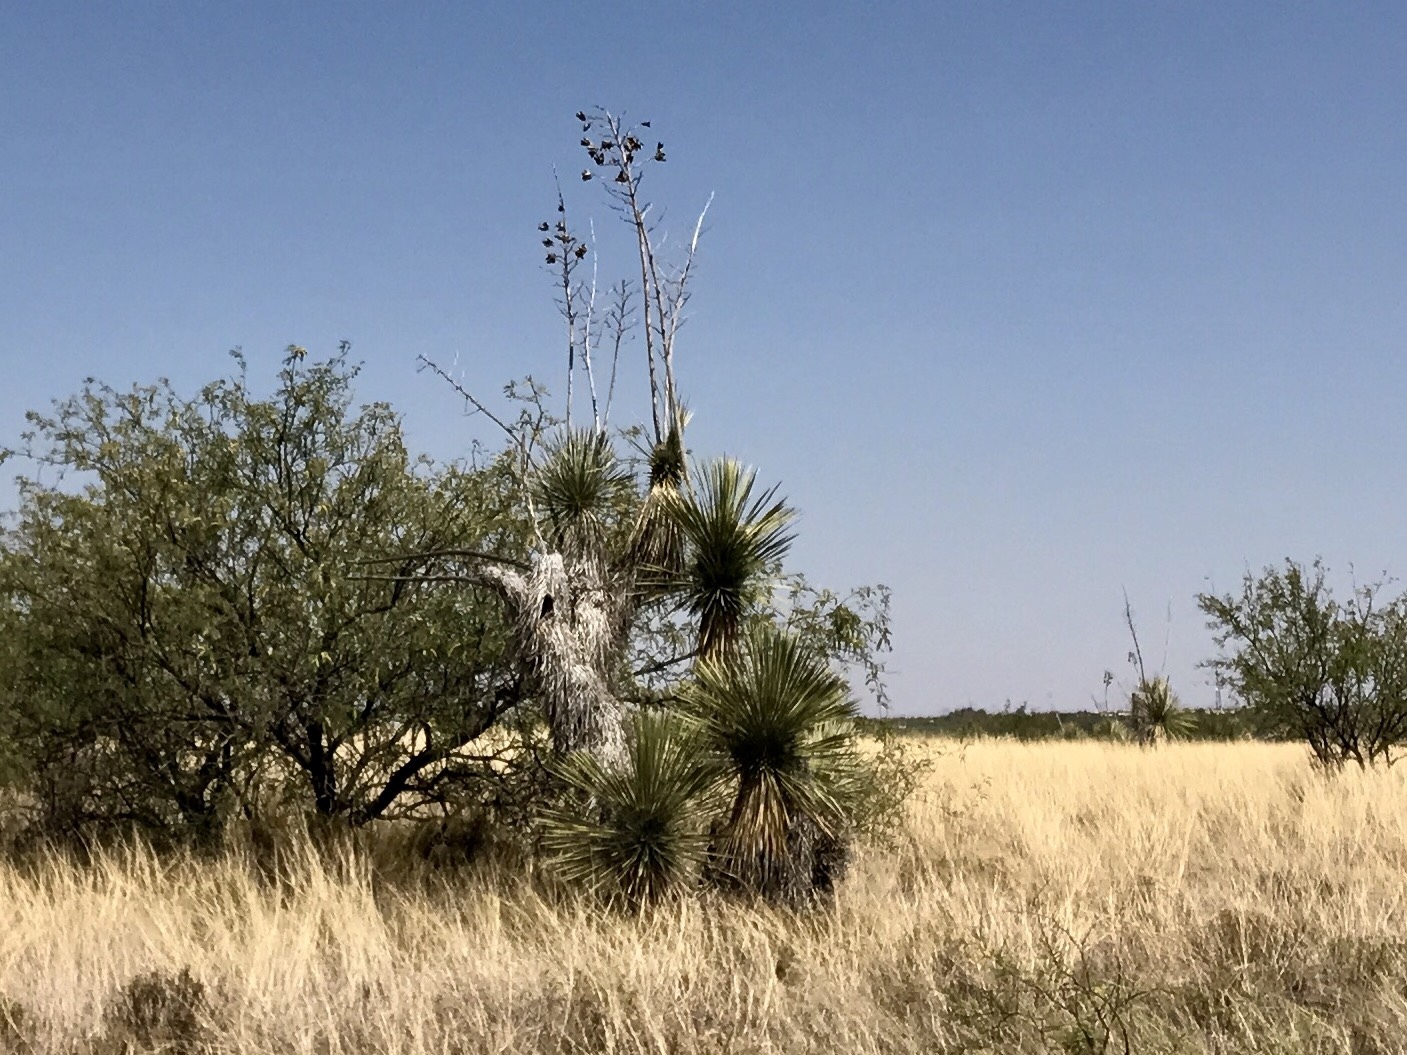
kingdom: Plantae
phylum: Tracheophyta
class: Liliopsida
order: Asparagales
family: Asparagaceae
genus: Yucca
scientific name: Yucca elata
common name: Palmella
